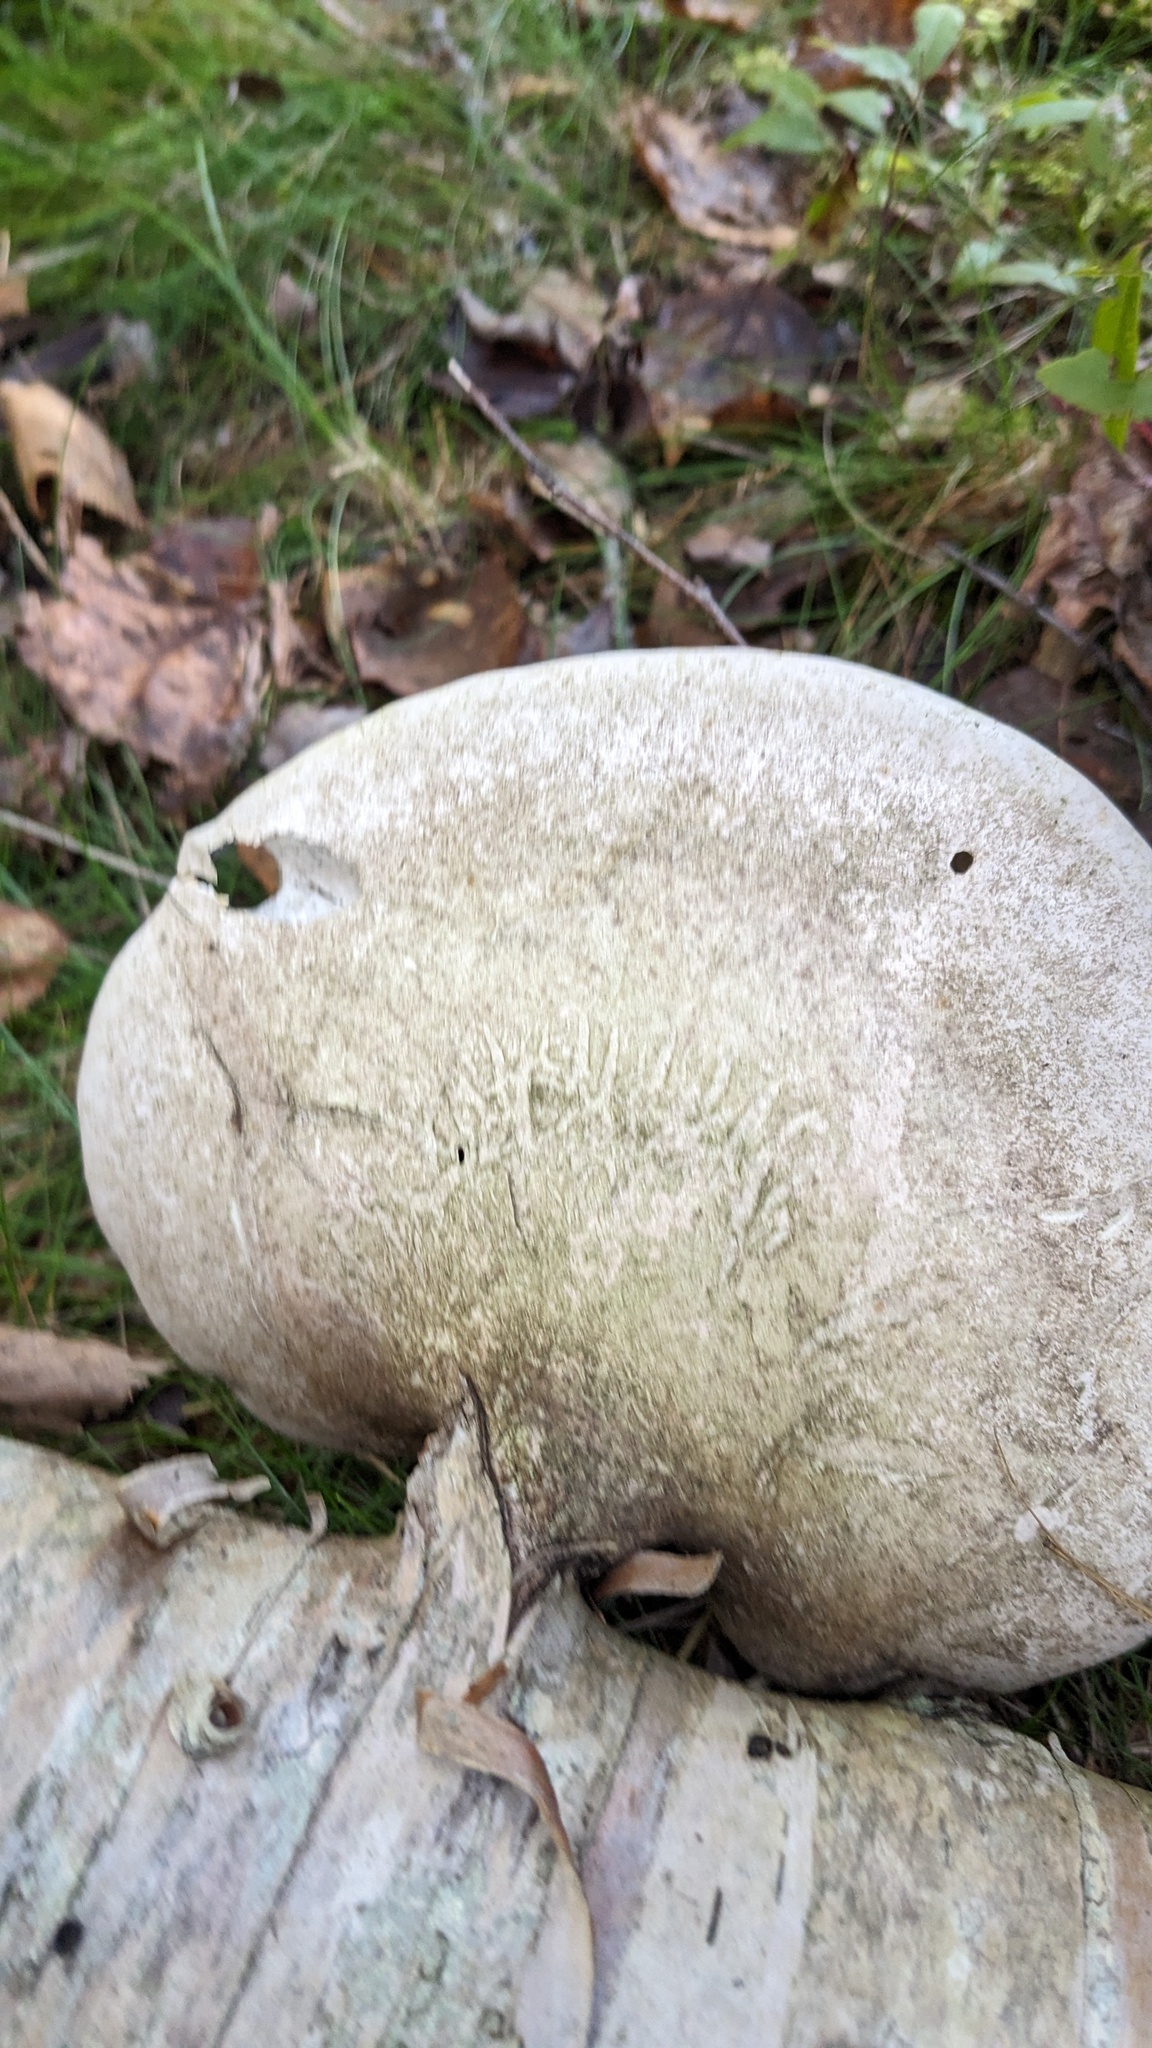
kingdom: Fungi
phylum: Basidiomycota
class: Agaricomycetes
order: Polyporales
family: Fomitopsidaceae
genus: Fomitopsis
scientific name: Fomitopsis betulina
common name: Birch polypore
